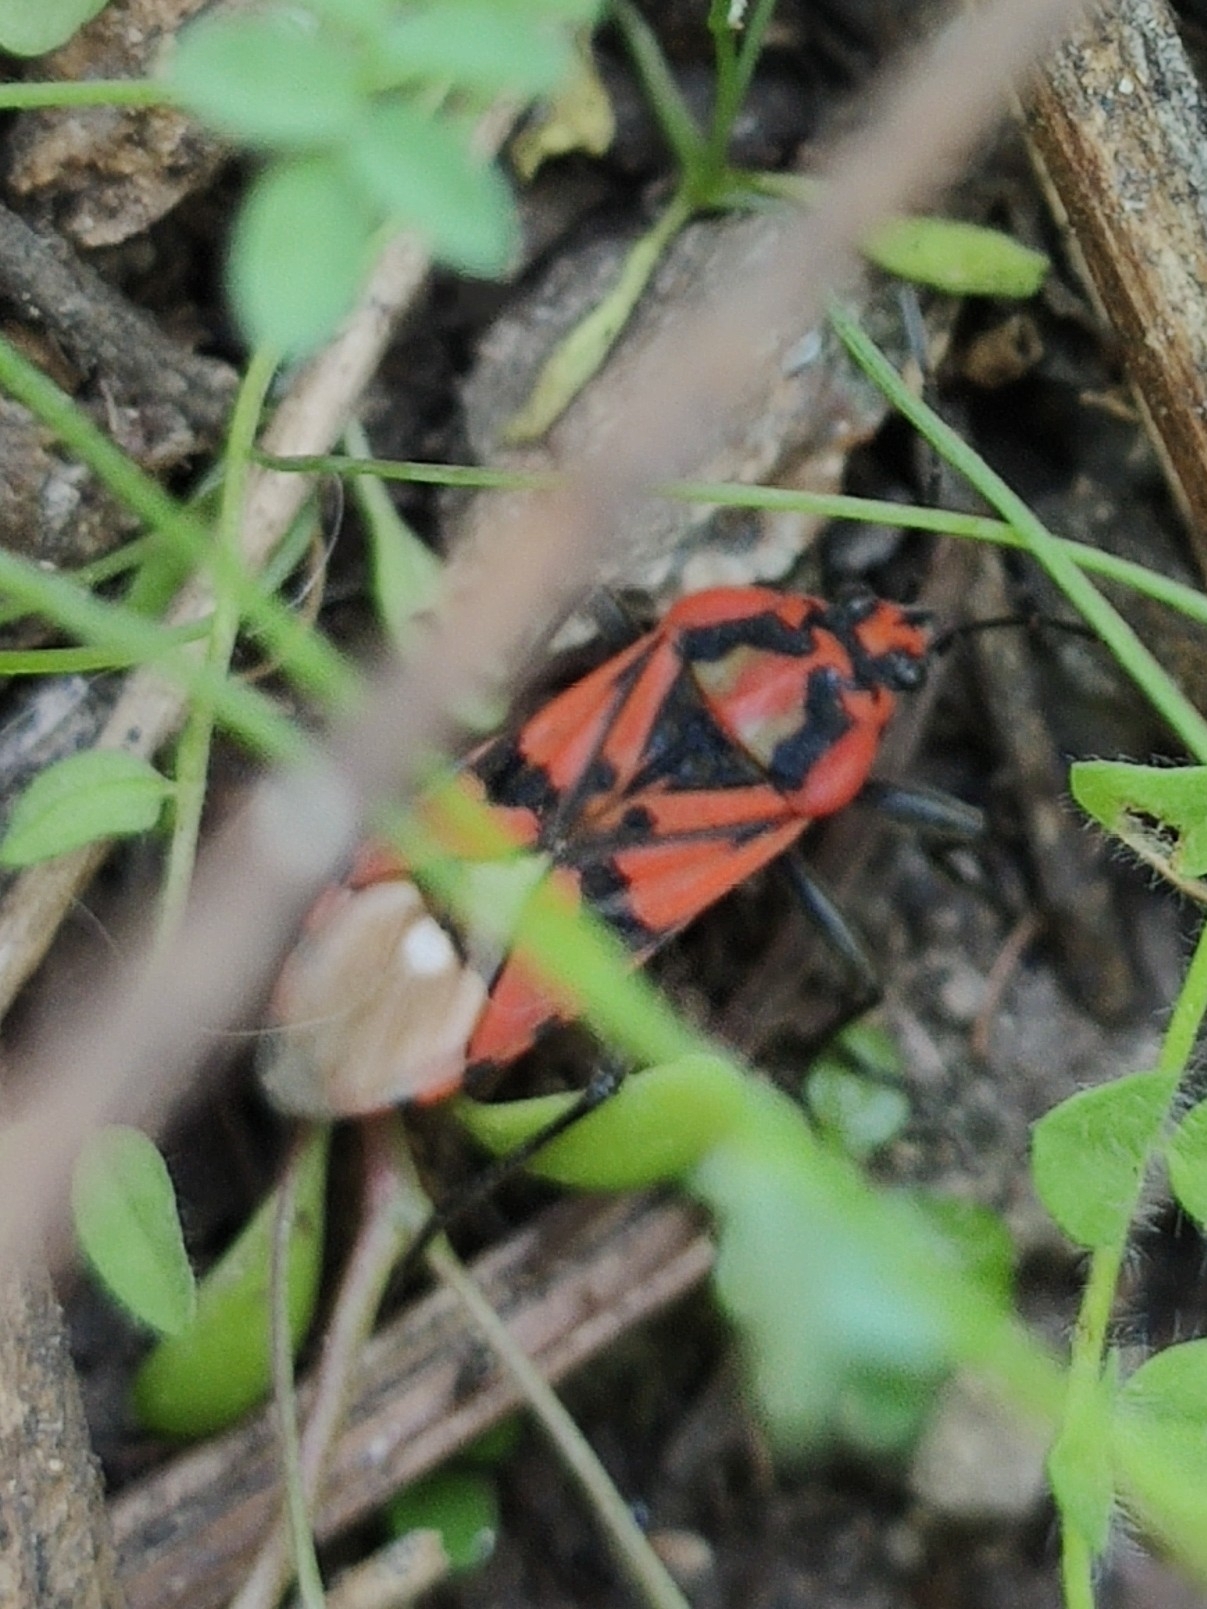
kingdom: Animalia
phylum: Arthropoda
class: Insecta
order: Hemiptera
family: Lygaeidae
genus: Spilostethus
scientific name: Spilostethus pandurus
